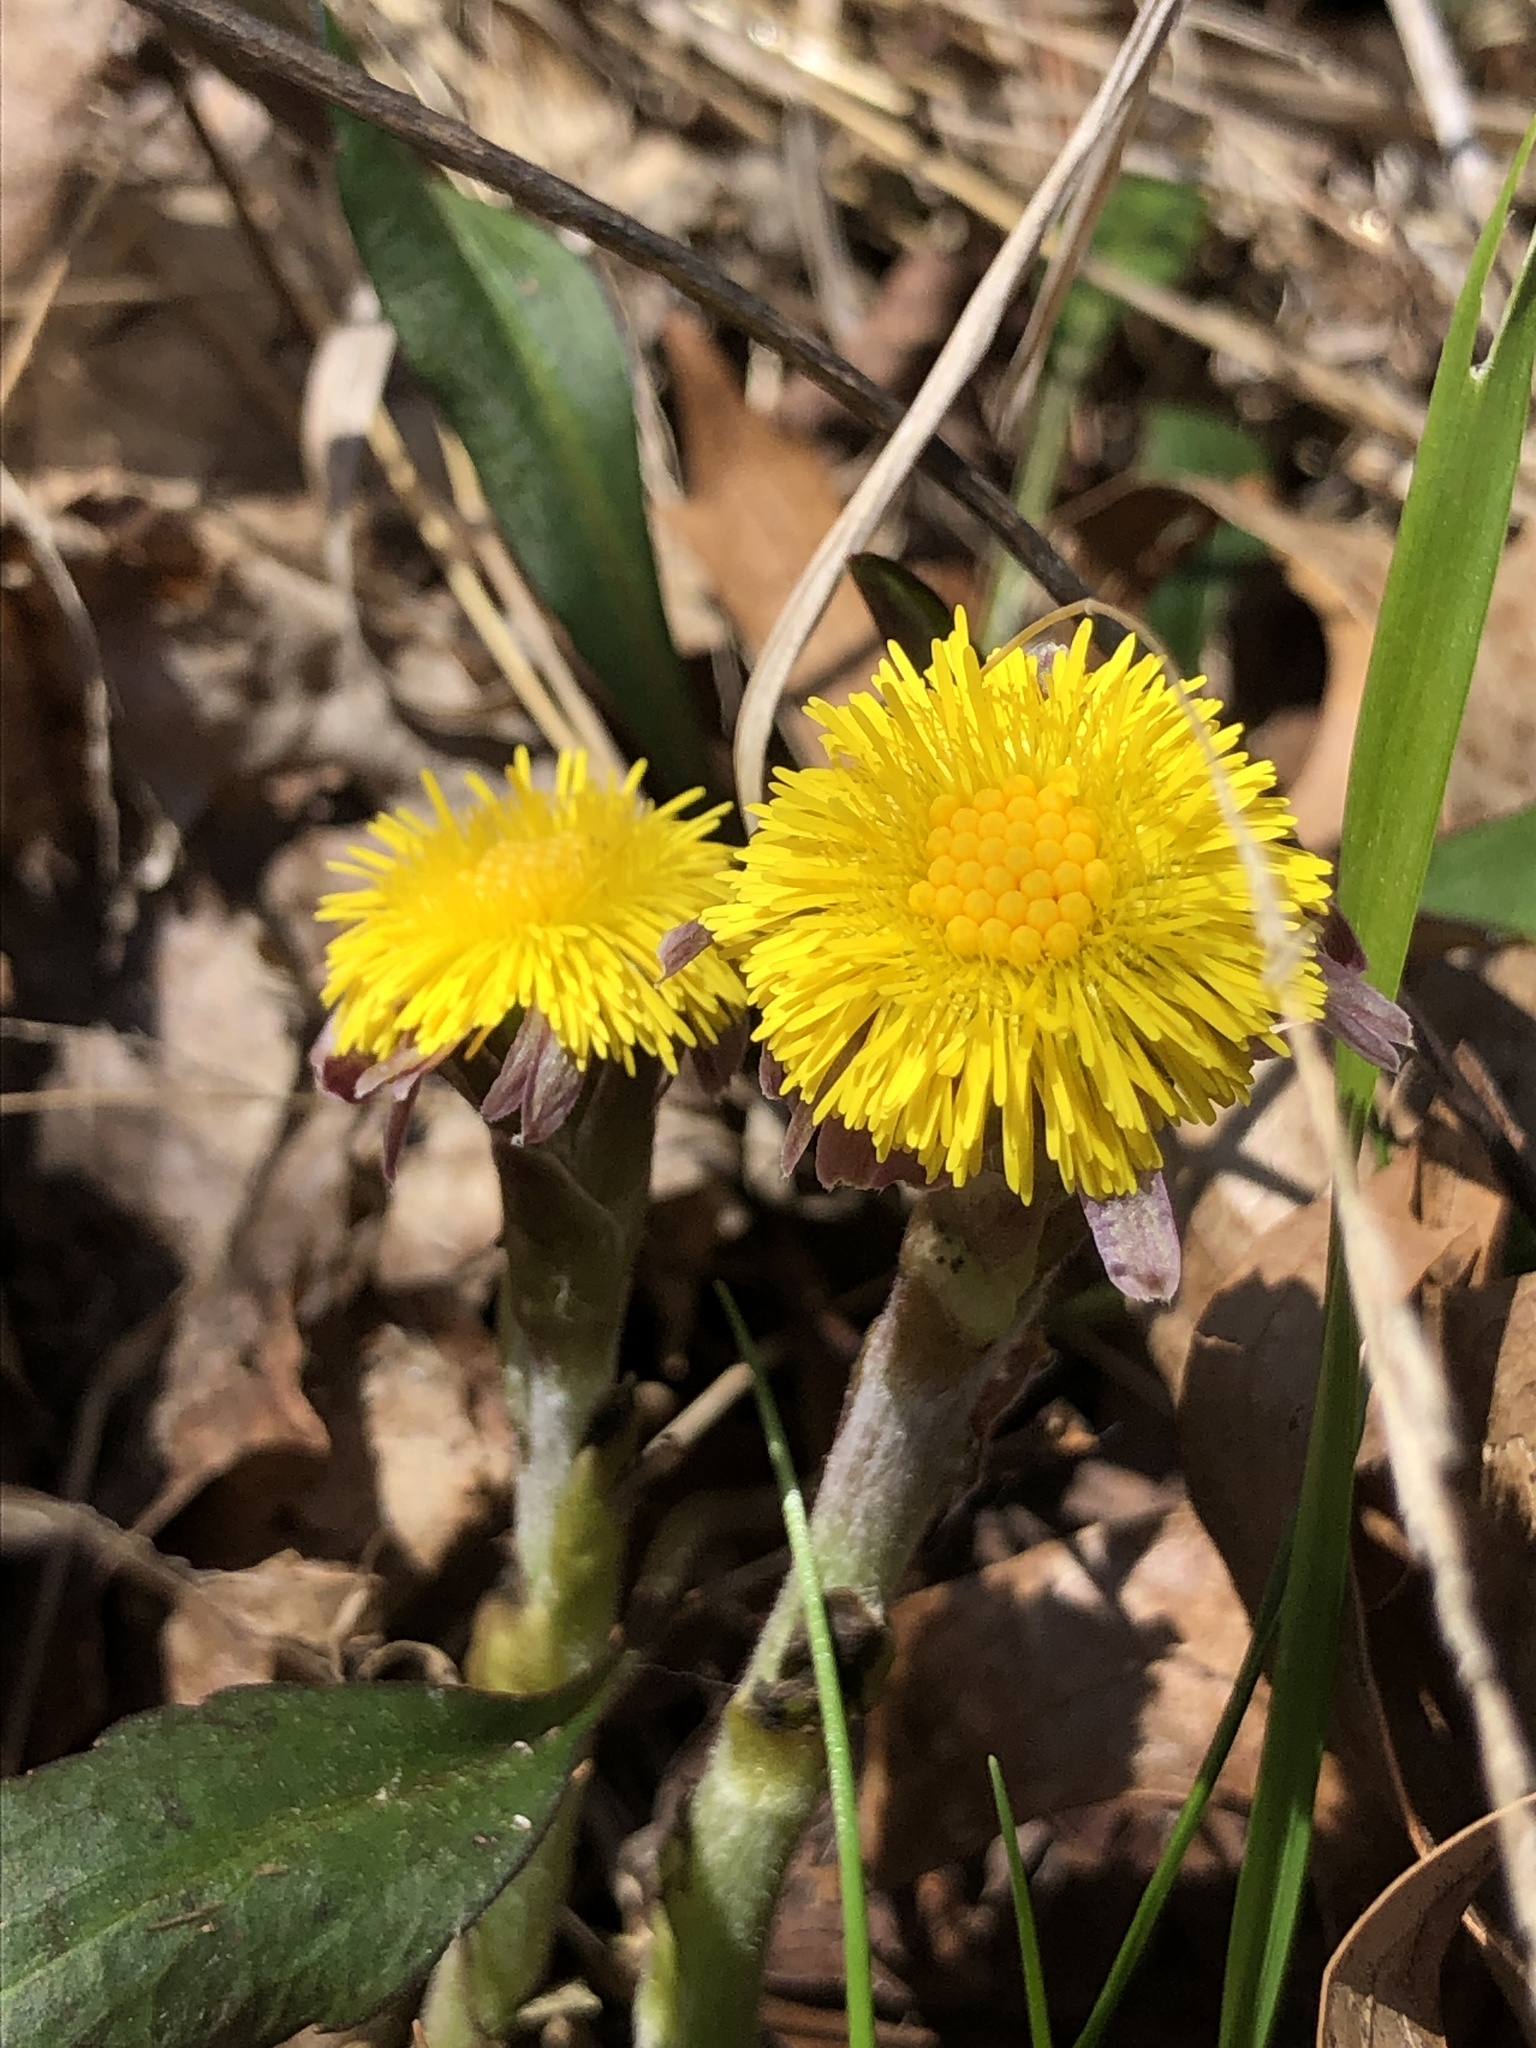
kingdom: Plantae
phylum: Tracheophyta
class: Magnoliopsida
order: Asterales
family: Asteraceae
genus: Tussilago
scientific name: Tussilago farfara
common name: Coltsfoot
